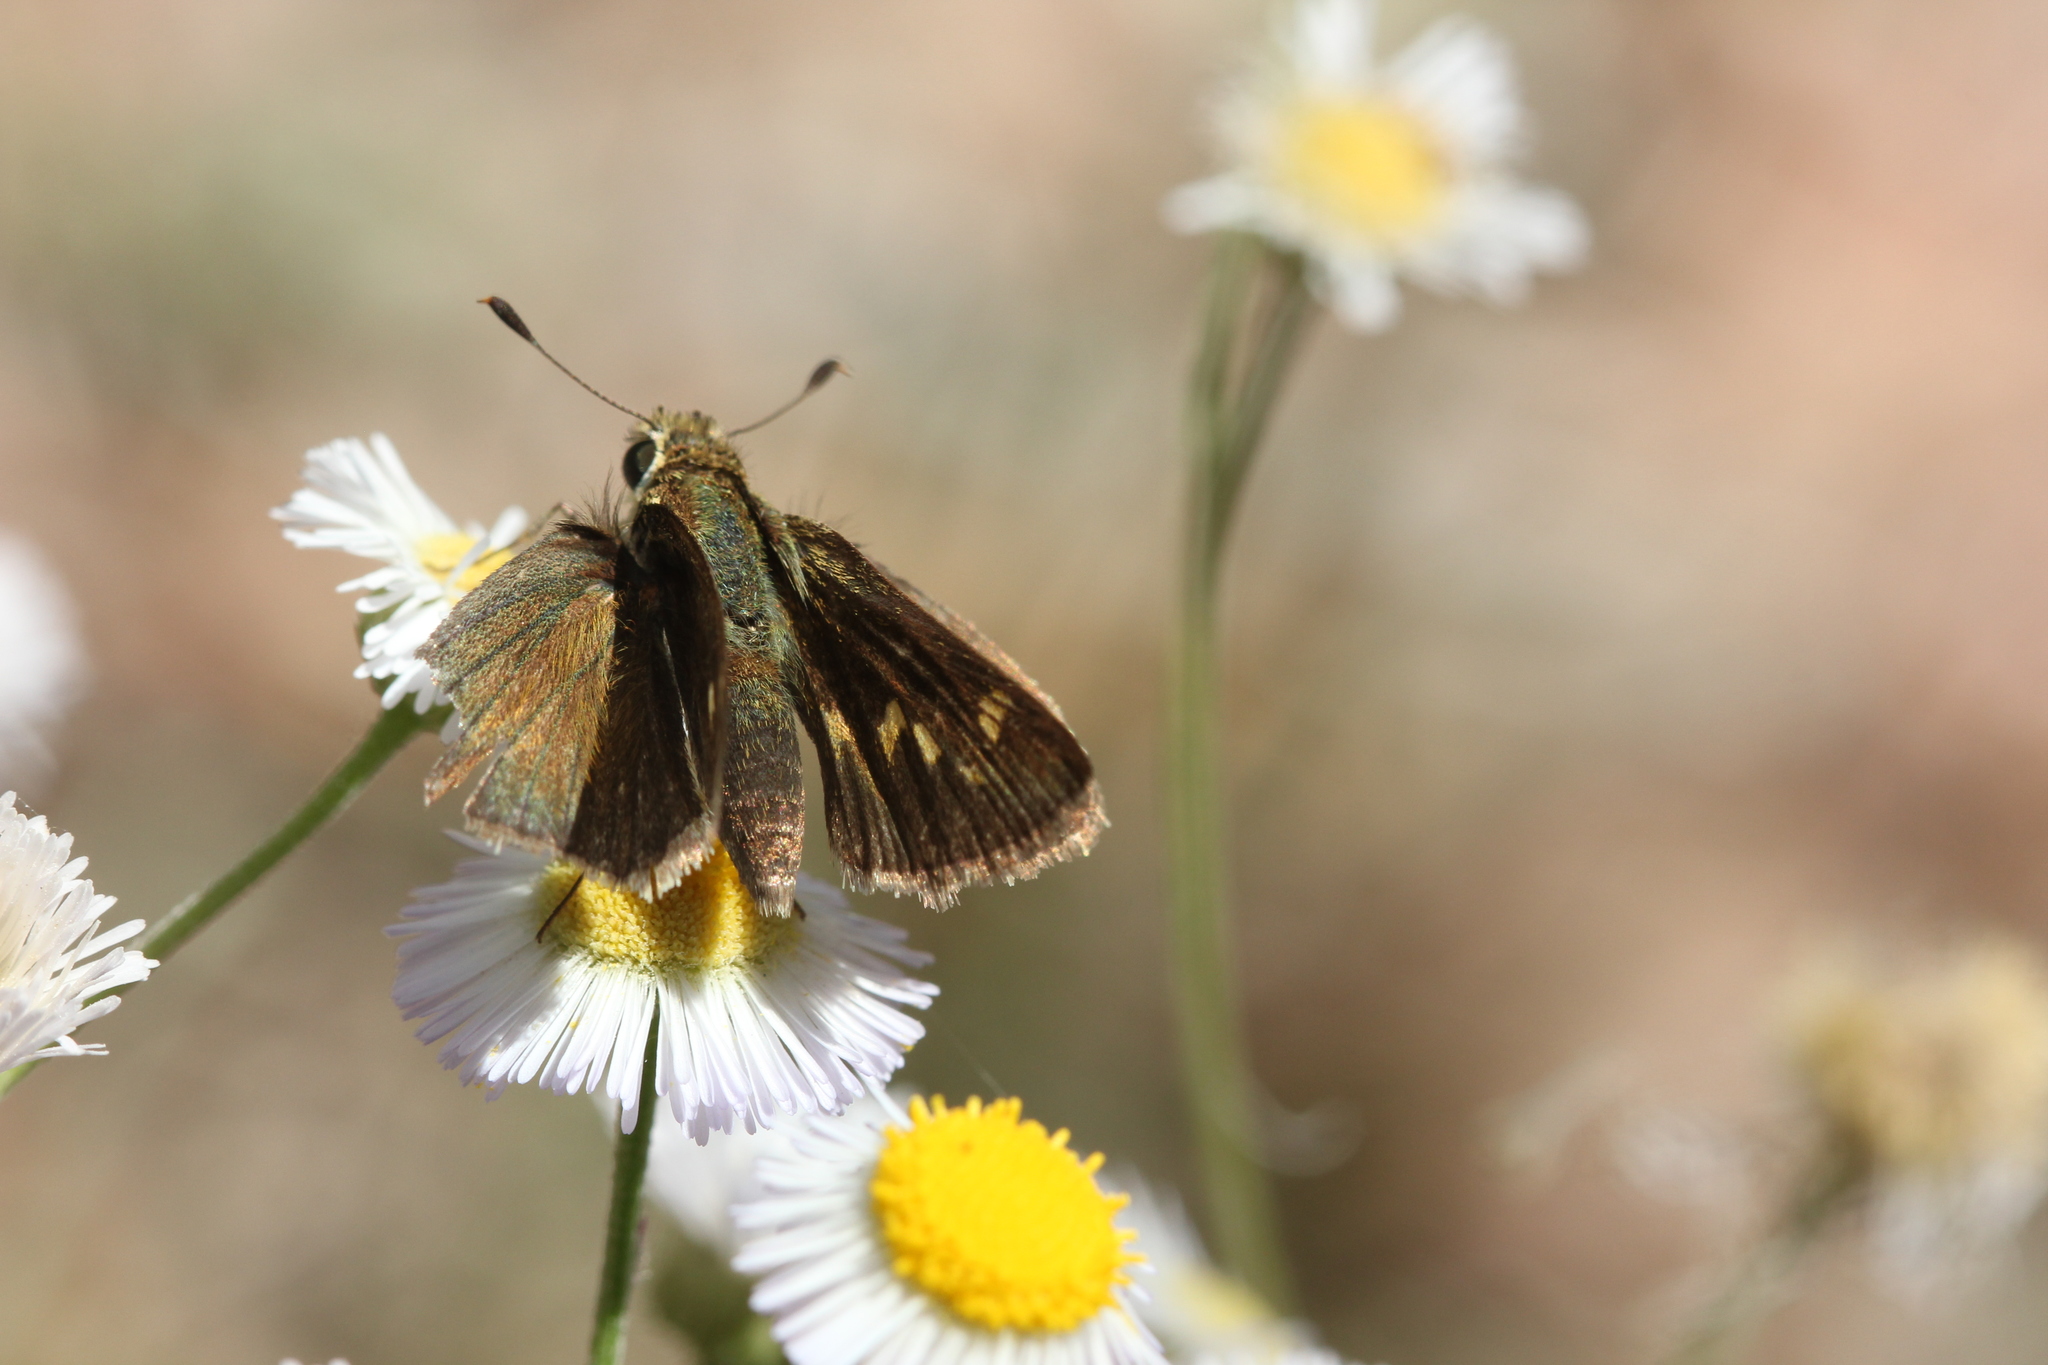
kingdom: Animalia
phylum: Arthropoda
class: Insecta
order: Lepidoptera
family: Hesperiidae
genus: Polites
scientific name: Polites vibex
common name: Whirlabout
